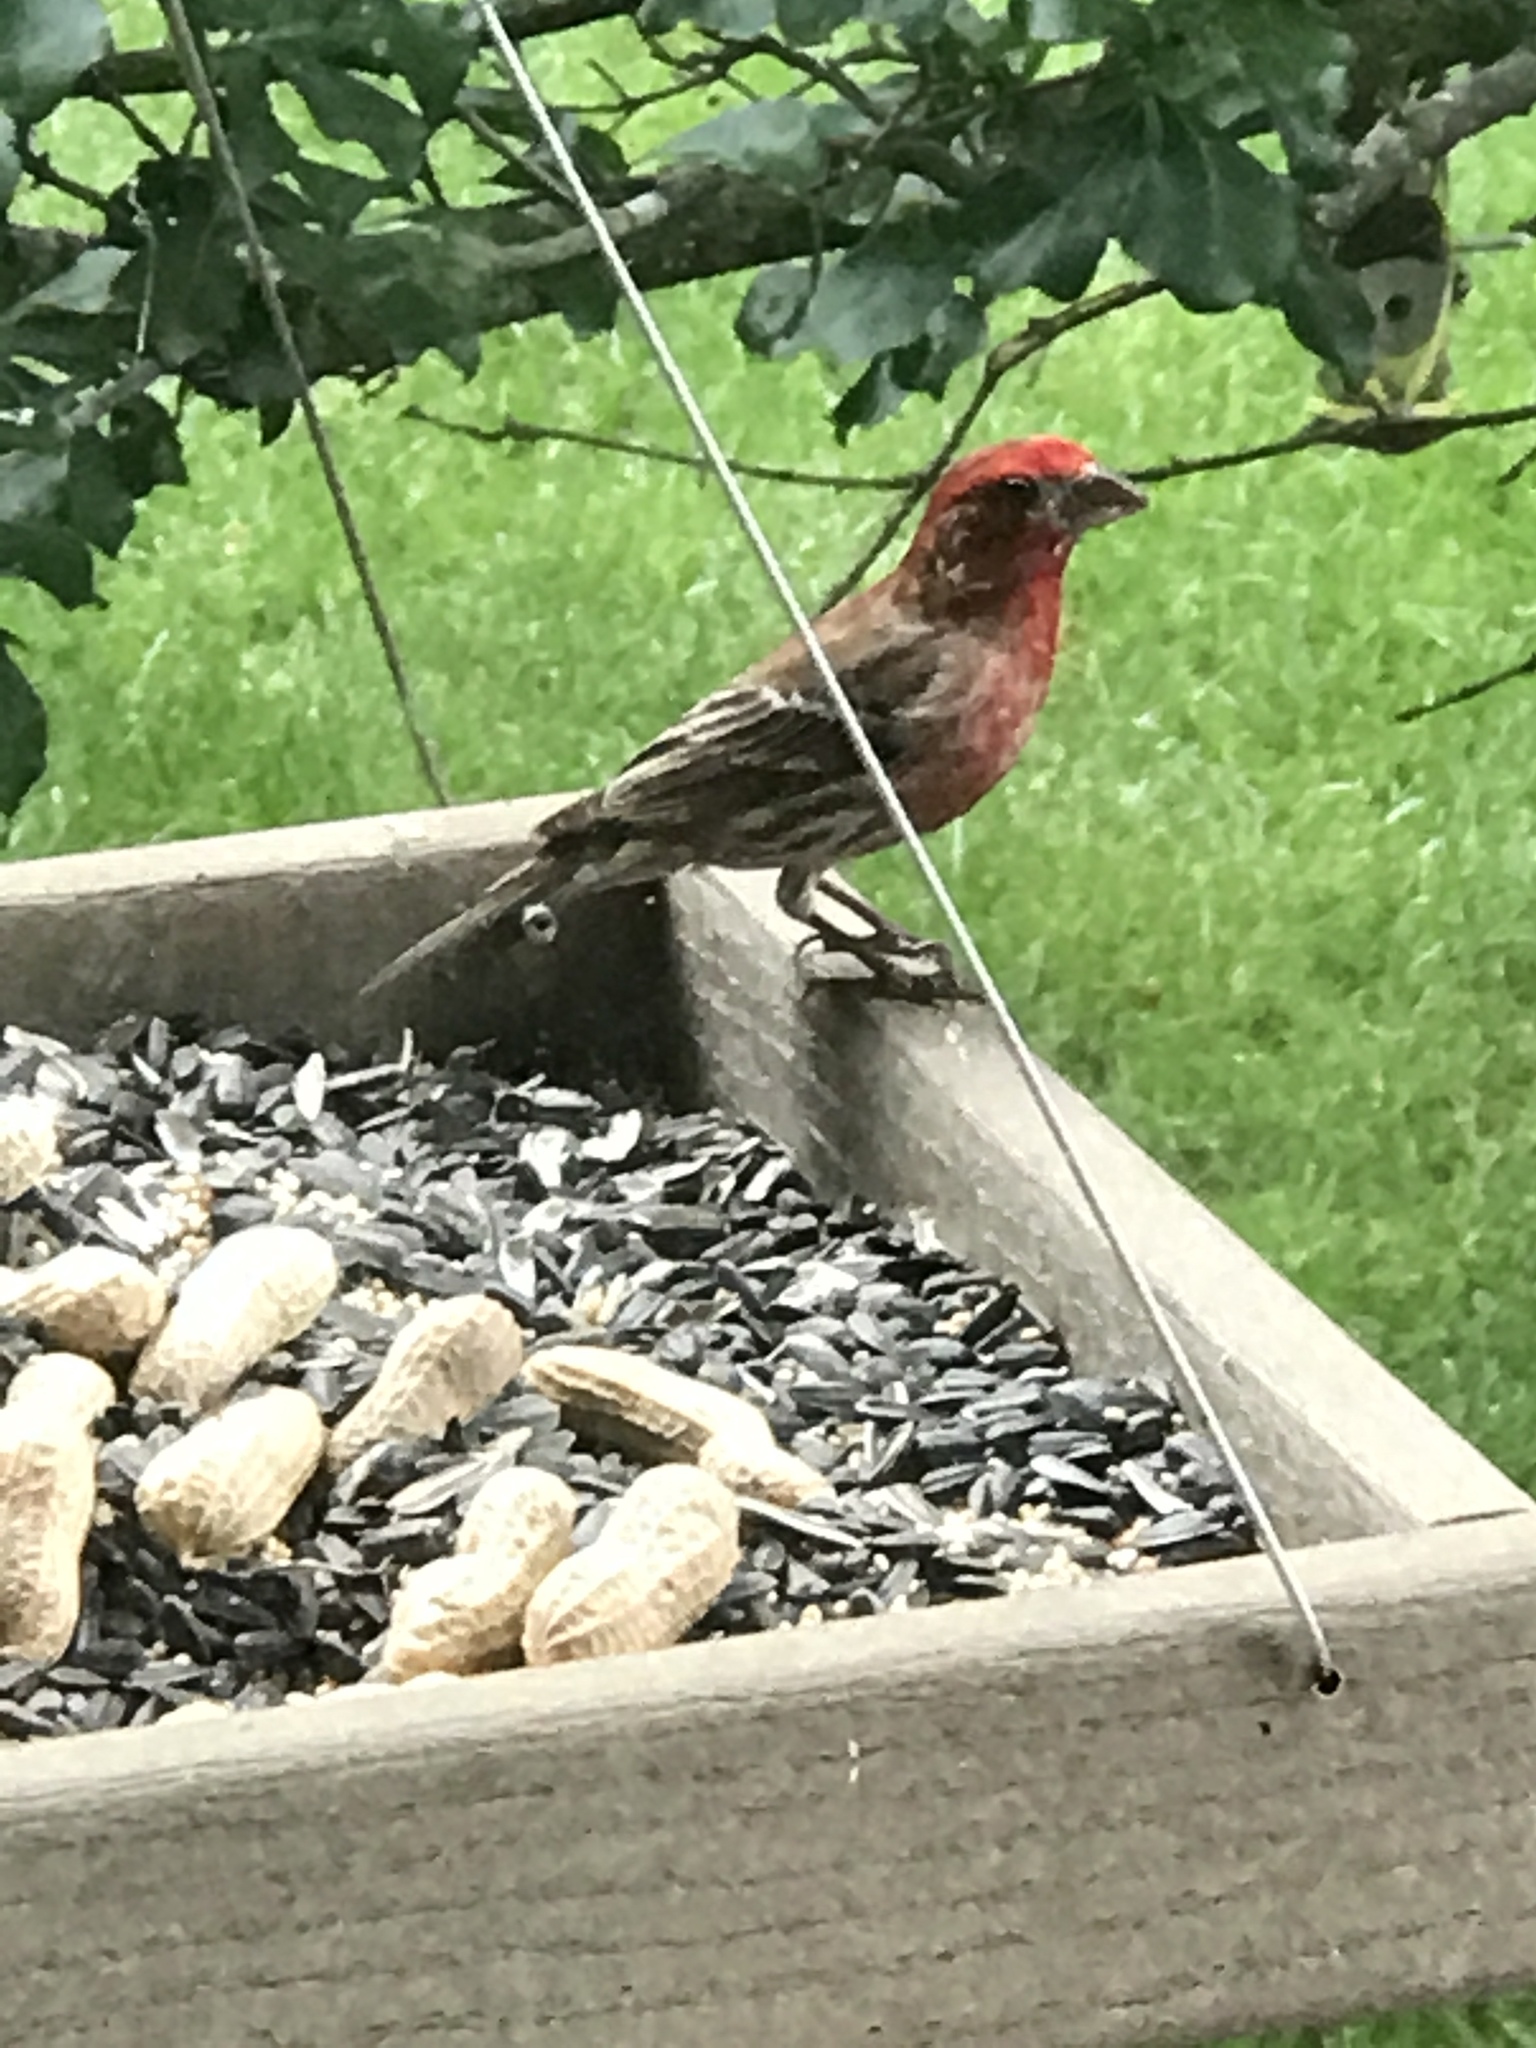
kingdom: Animalia
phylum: Chordata
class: Aves
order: Passeriformes
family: Fringillidae
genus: Haemorhous
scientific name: Haemorhous mexicanus
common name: House finch
